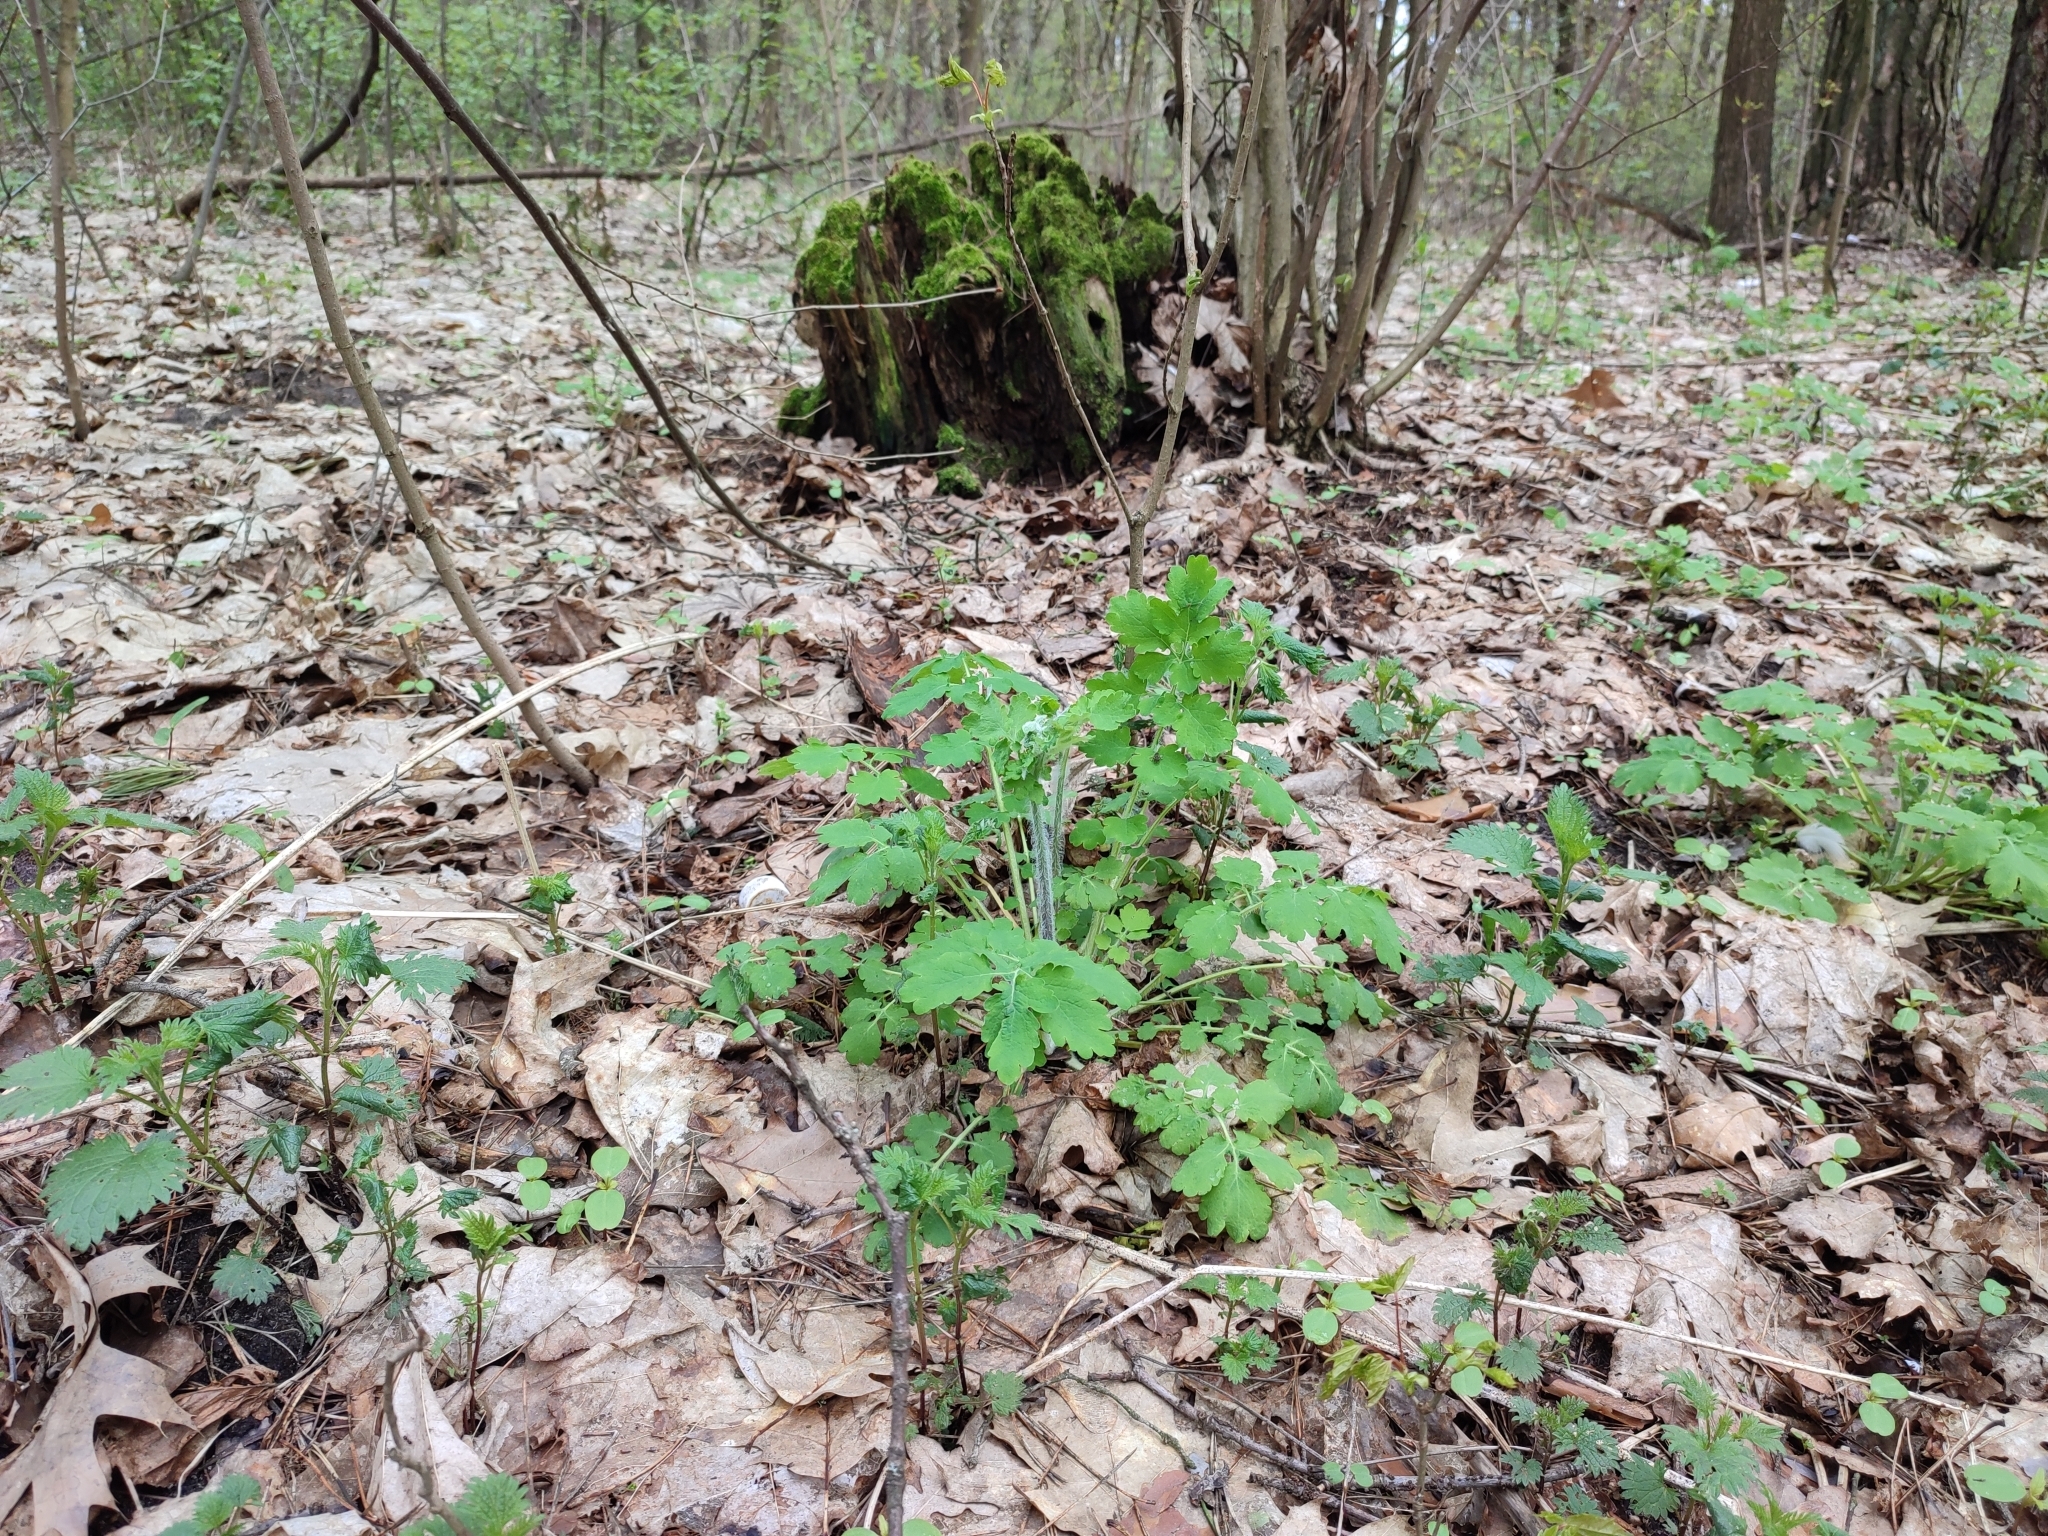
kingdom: Plantae
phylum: Tracheophyta
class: Magnoliopsida
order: Ranunculales
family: Papaveraceae
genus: Chelidonium
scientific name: Chelidonium majus
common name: Greater celandine
